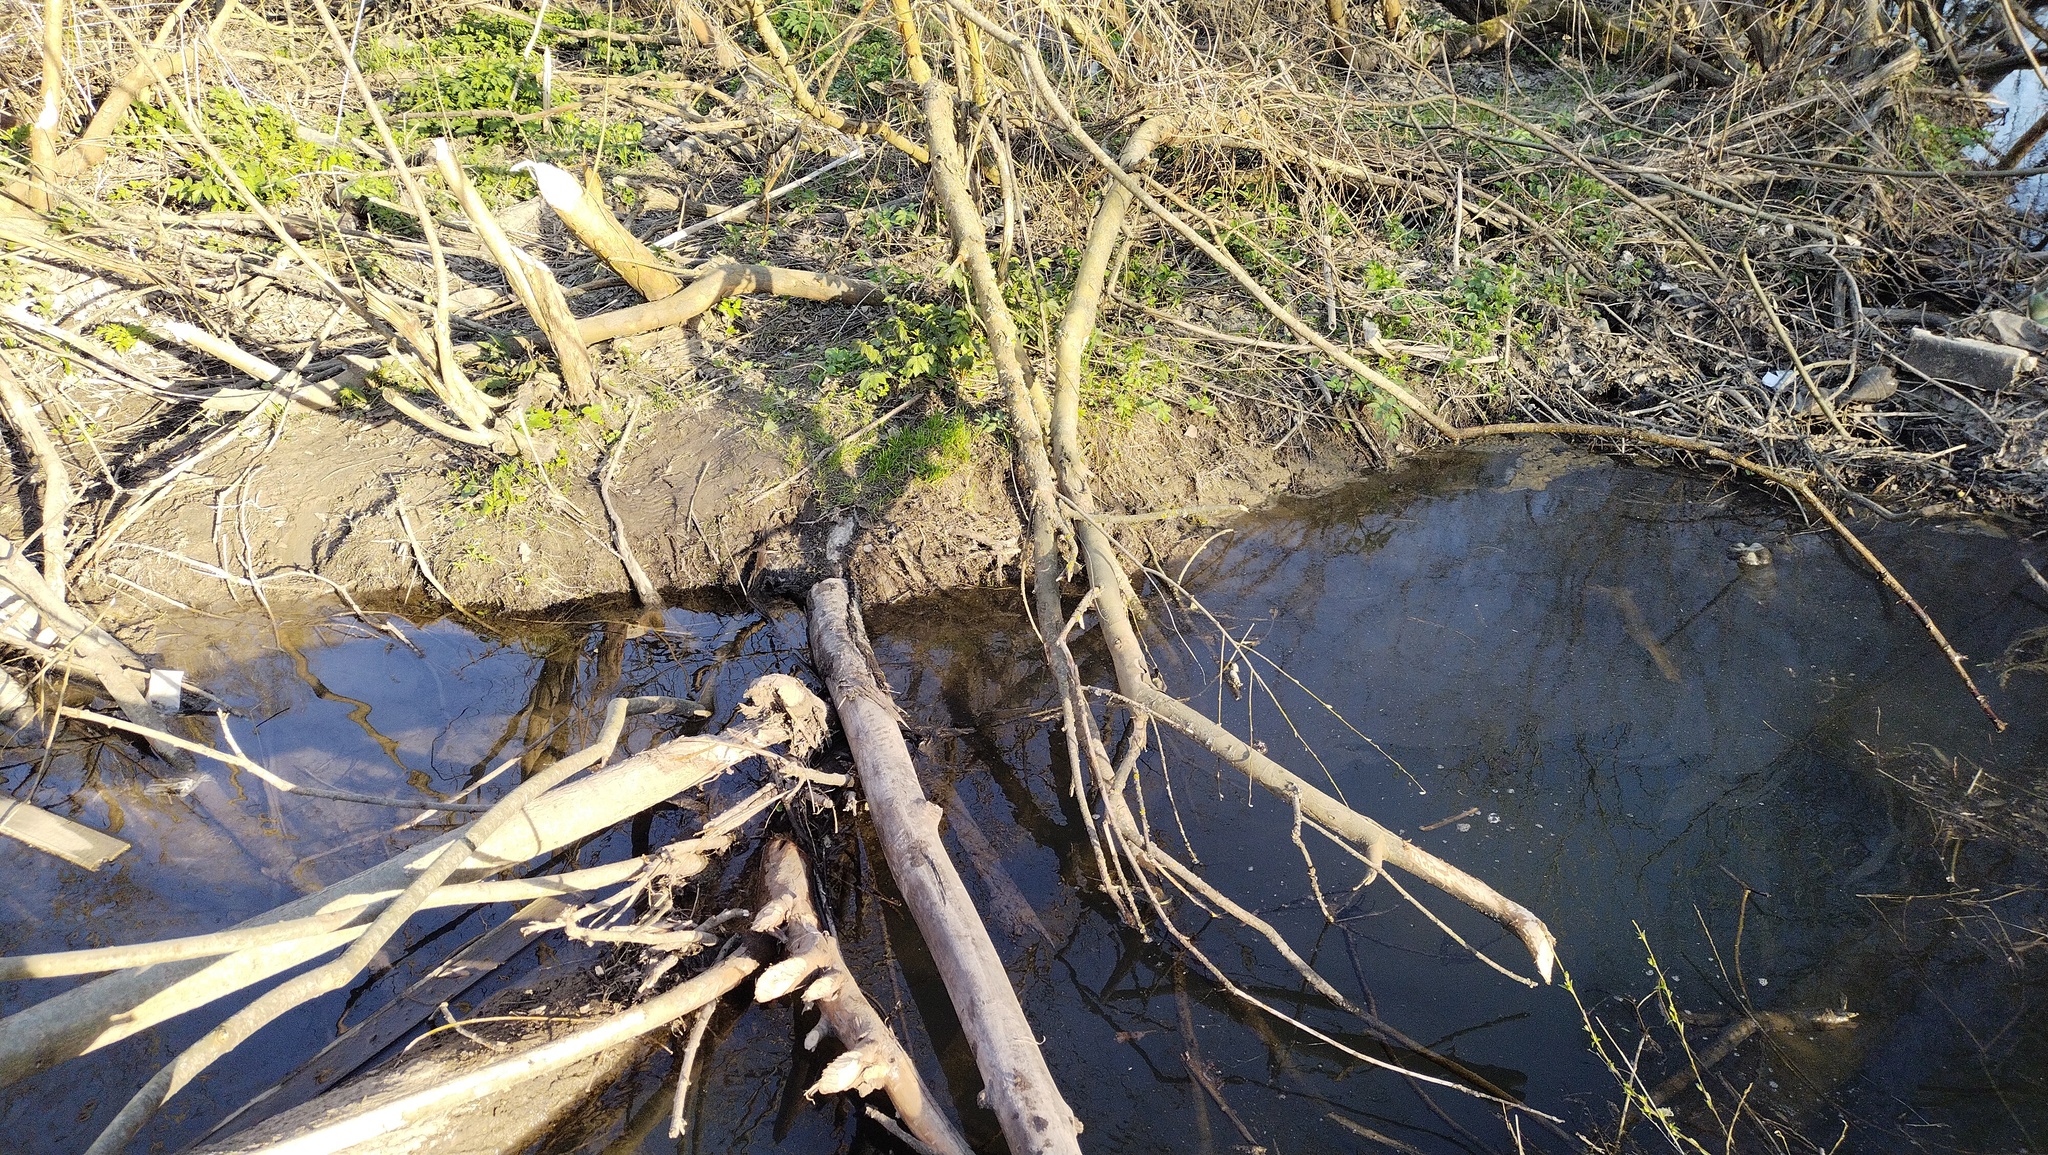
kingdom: Animalia
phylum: Chordata
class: Mammalia
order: Rodentia
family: Castoridae
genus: Castor
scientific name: Castor fiber
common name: Eurasian beaver
